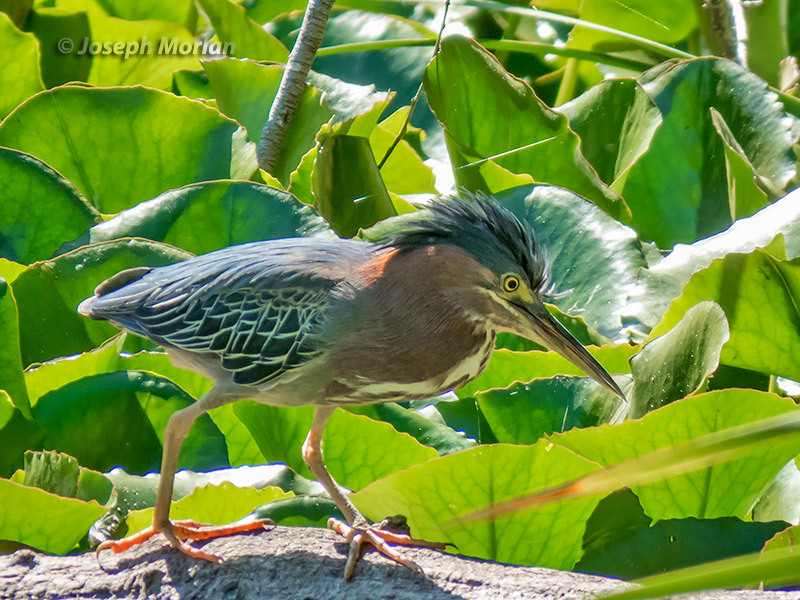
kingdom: Animalia
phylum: Chordata
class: Aves
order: Pelecaniformes
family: Ardeidae
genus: Butorides
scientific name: Butorides virescens
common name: Green heron
